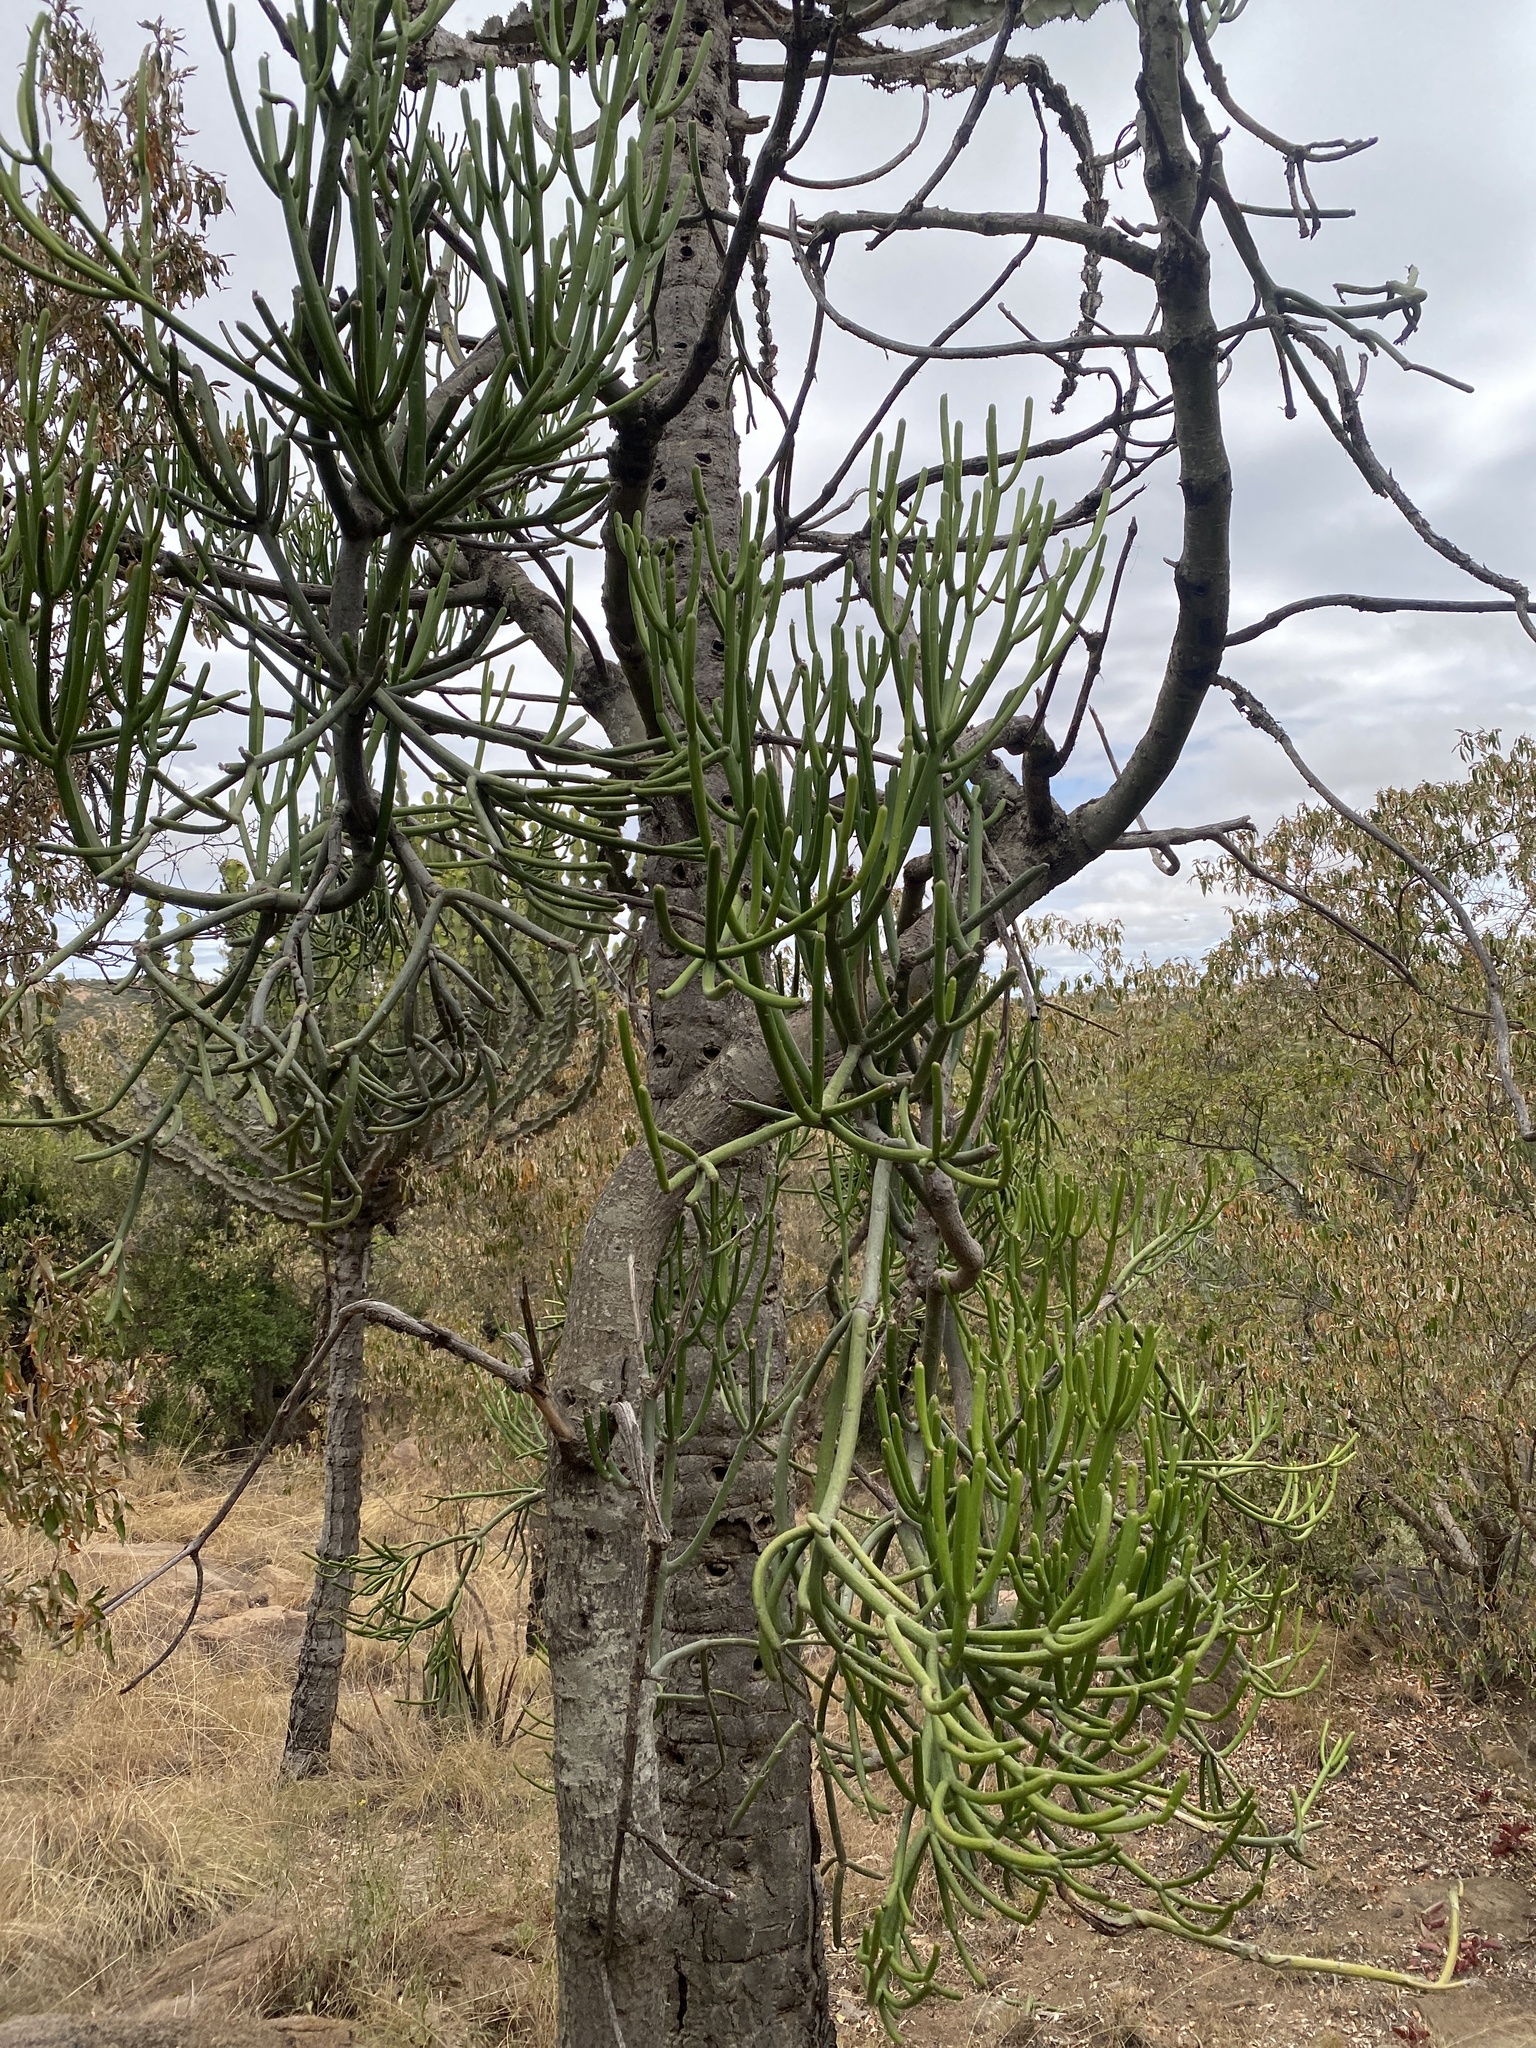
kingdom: Plantae
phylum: Tracheophyta
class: Magnoliopsida
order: Malpighiales
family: Euphorbiaceae
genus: Euphorbia
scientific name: Euphorbia tirucalli
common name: Indiantree spurge
